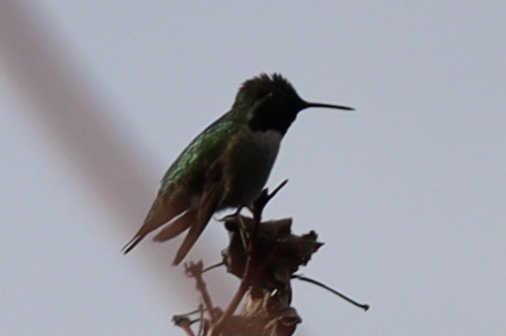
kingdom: Animalia
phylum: Chordata
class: Aves
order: Apodiformes
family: Trochilidae
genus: Calypte
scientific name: Calypte anna
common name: Anna's hummingbird
